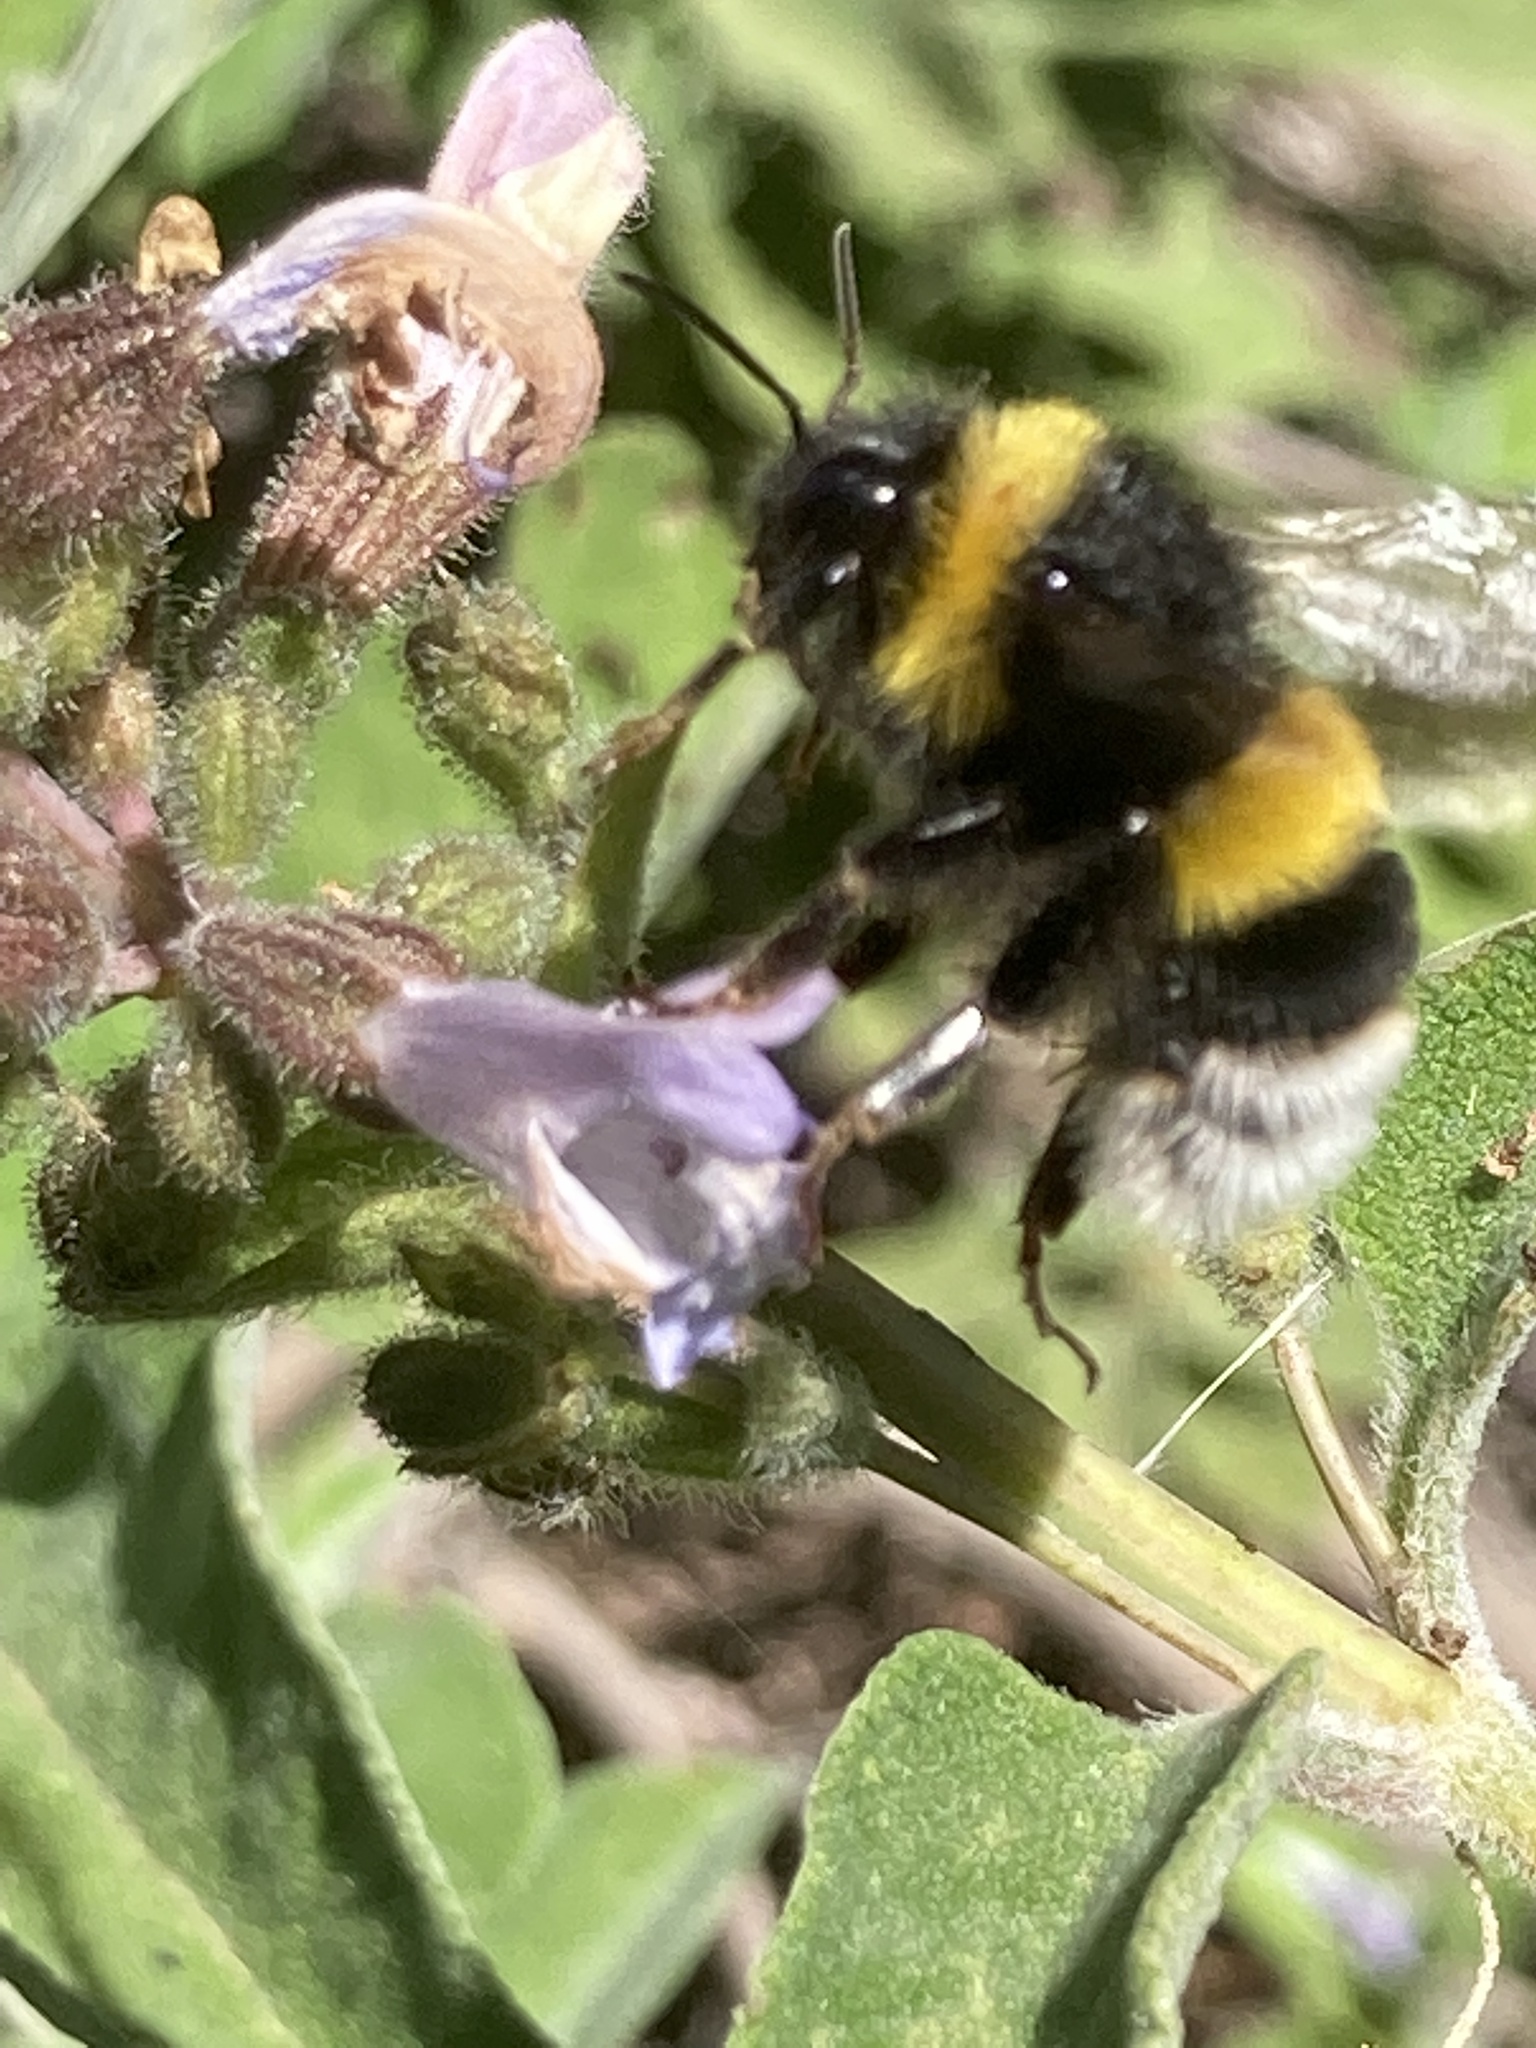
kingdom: Animalia
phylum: Arthropoda
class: Insecta
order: Hymenoptera
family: Apidae
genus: Bombus
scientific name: Bombus terrestris
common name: Buff-tailed bumblebee
